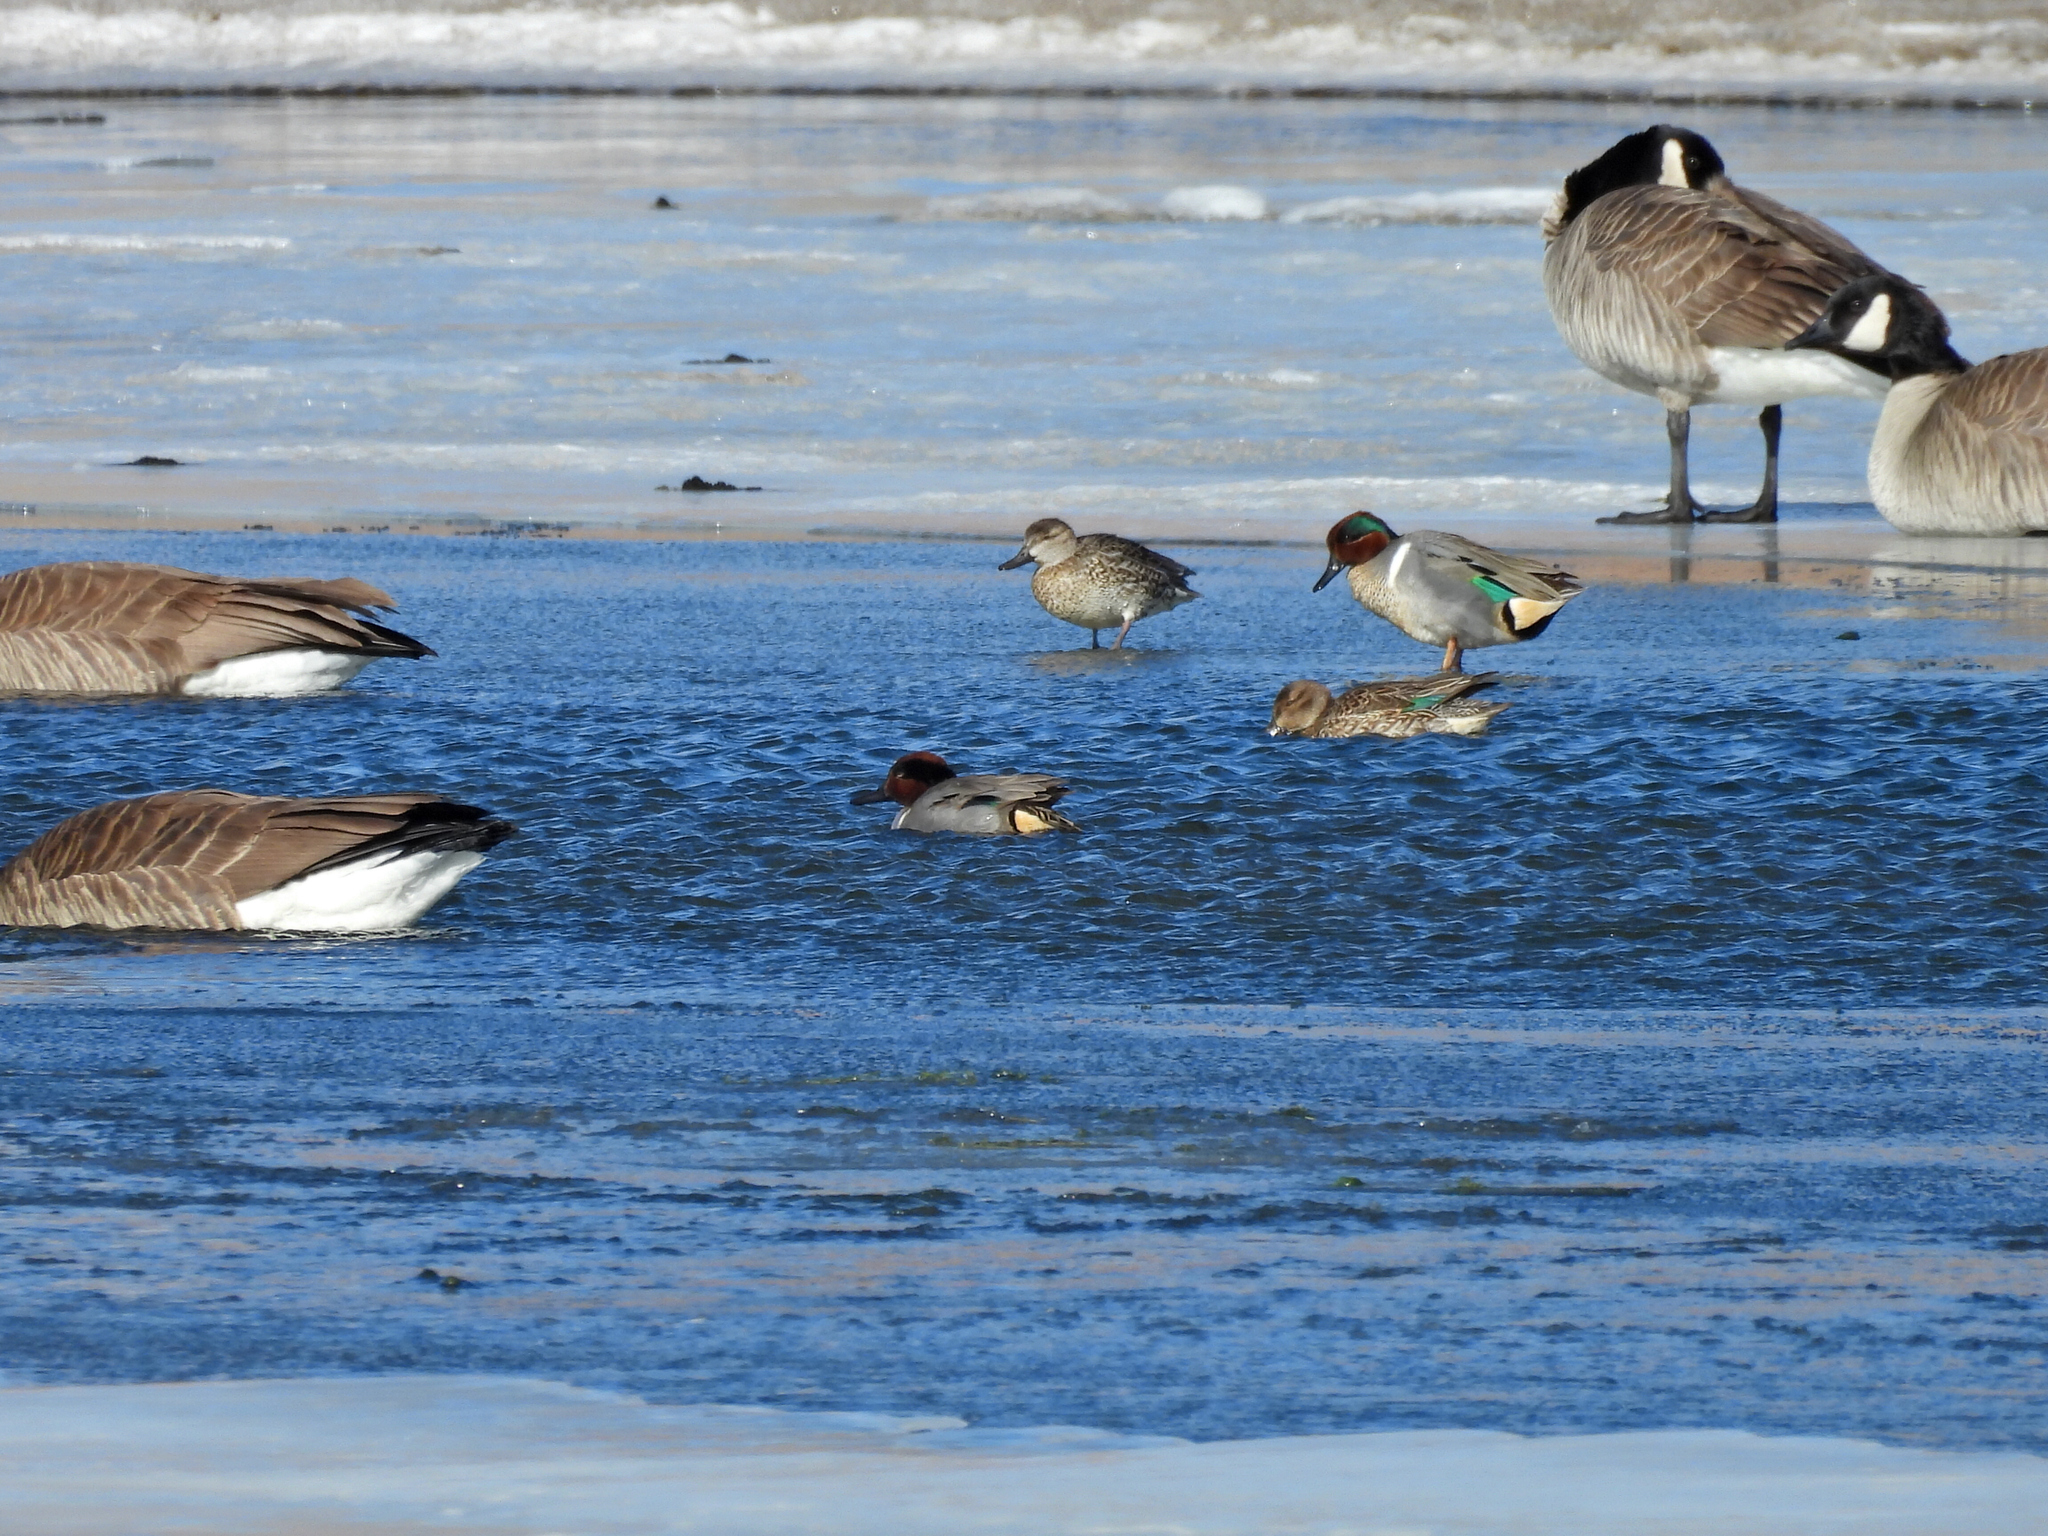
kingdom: Animalia
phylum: Chordata
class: Aves
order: Anseriformes
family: Anatidae
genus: Anas
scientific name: Anas crecca
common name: Eurasian teal
